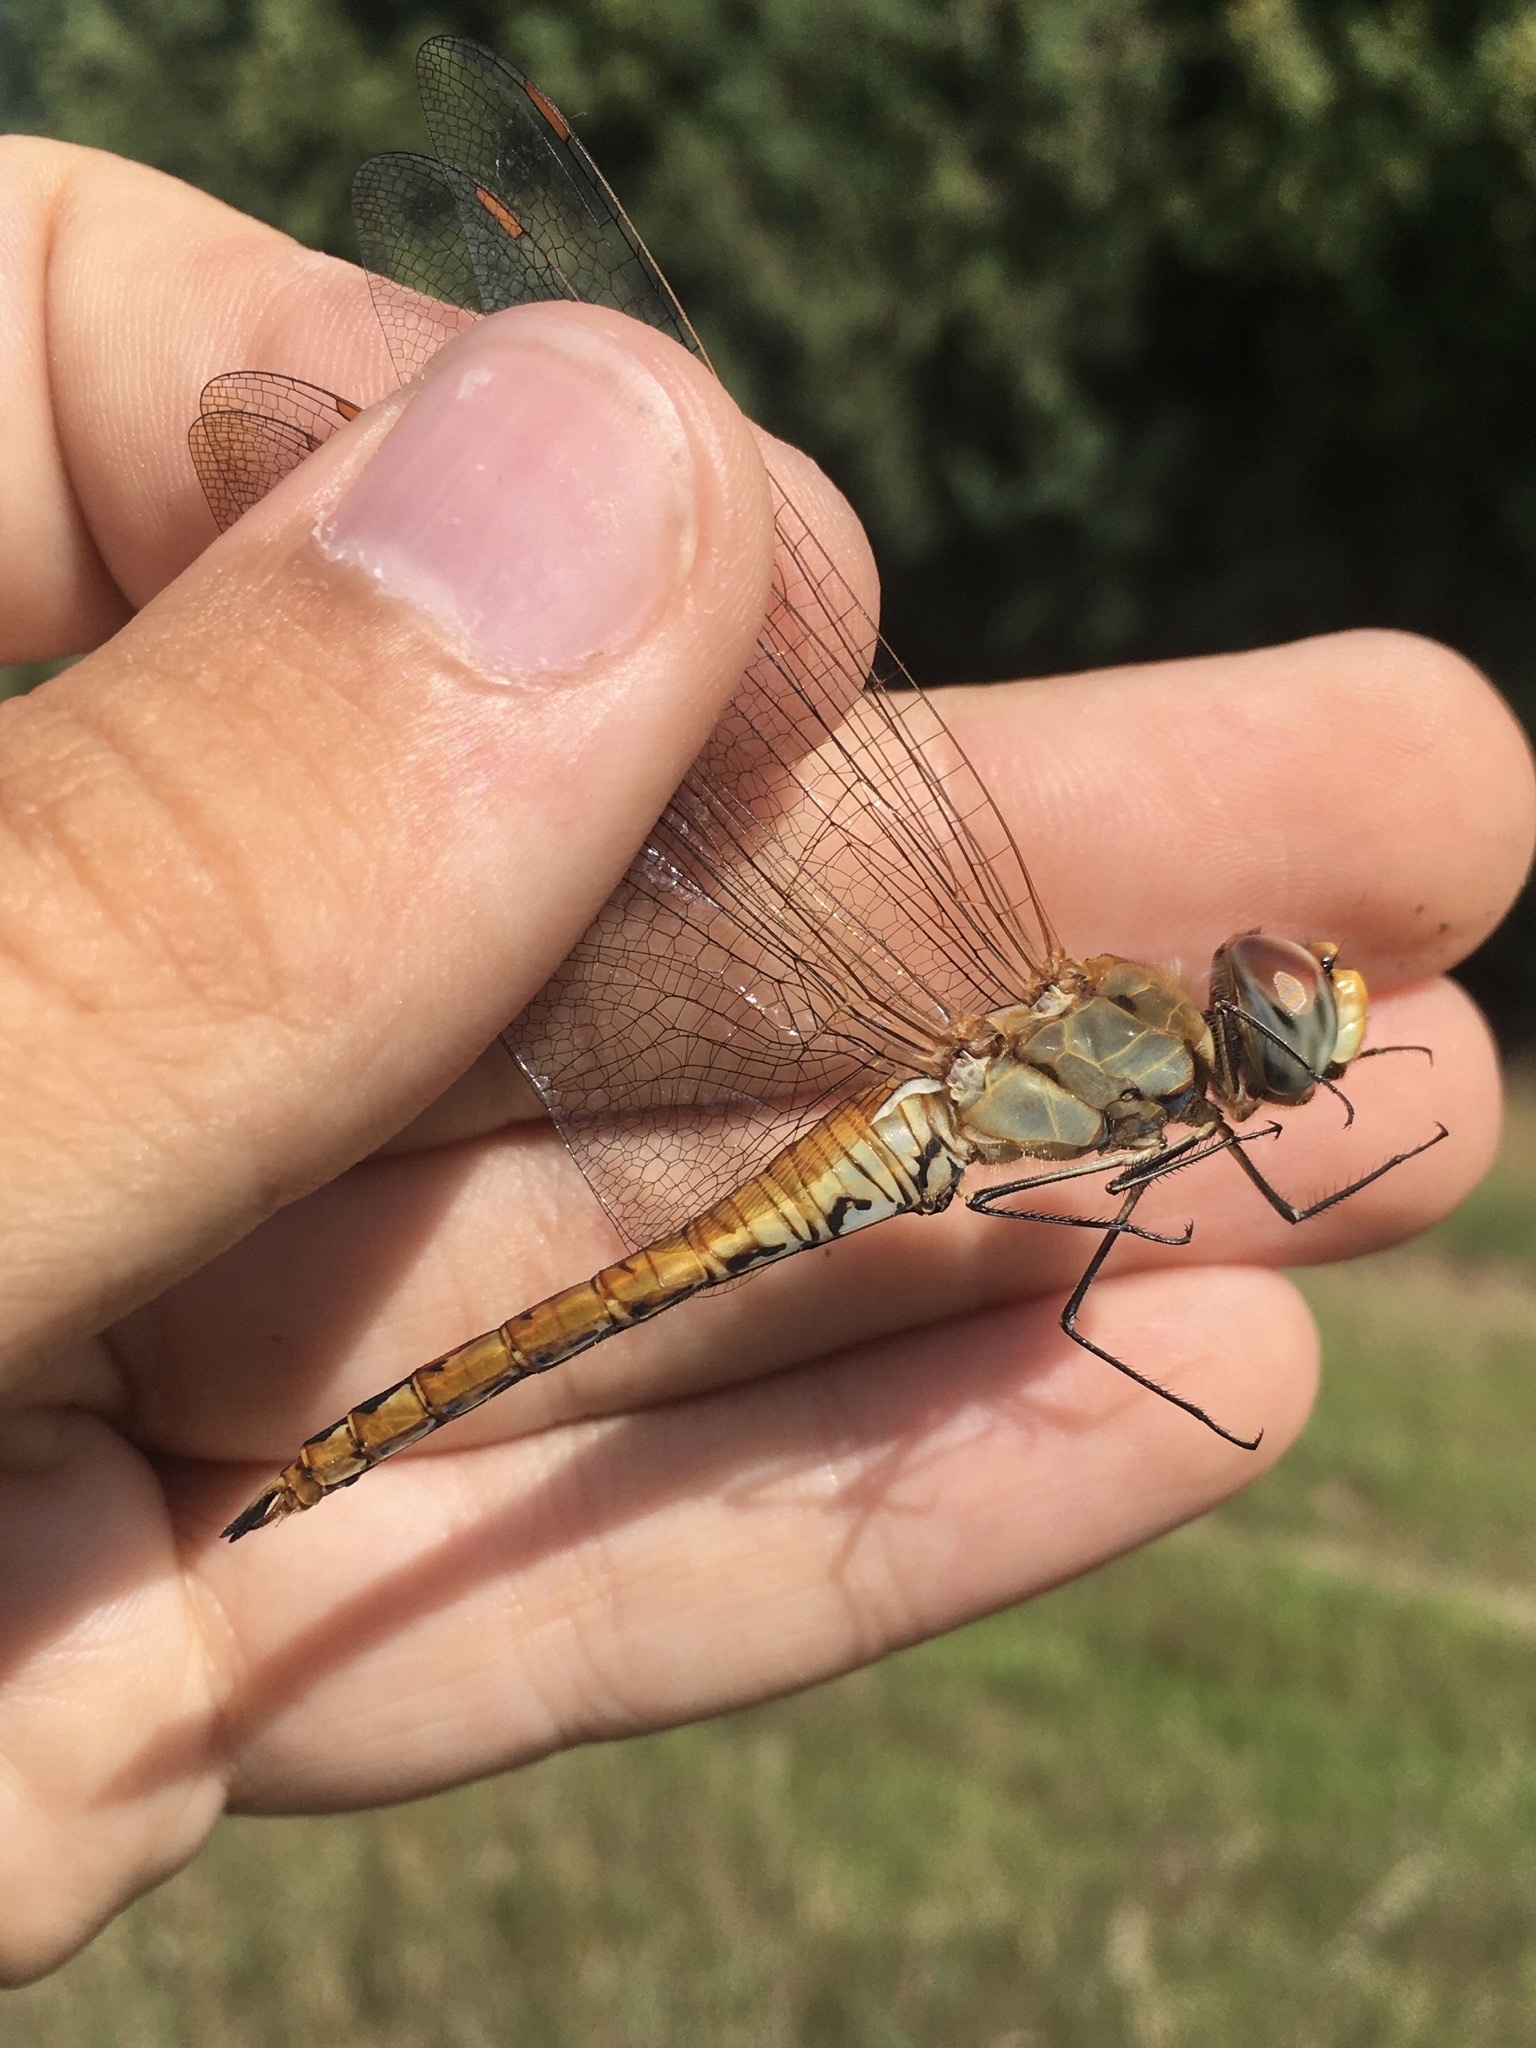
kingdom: Animalia
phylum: Arthropoda
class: Insecta
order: Odonata
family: Libellulidae
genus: Pantala
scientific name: Pantala flavescens
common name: Wandering glider
